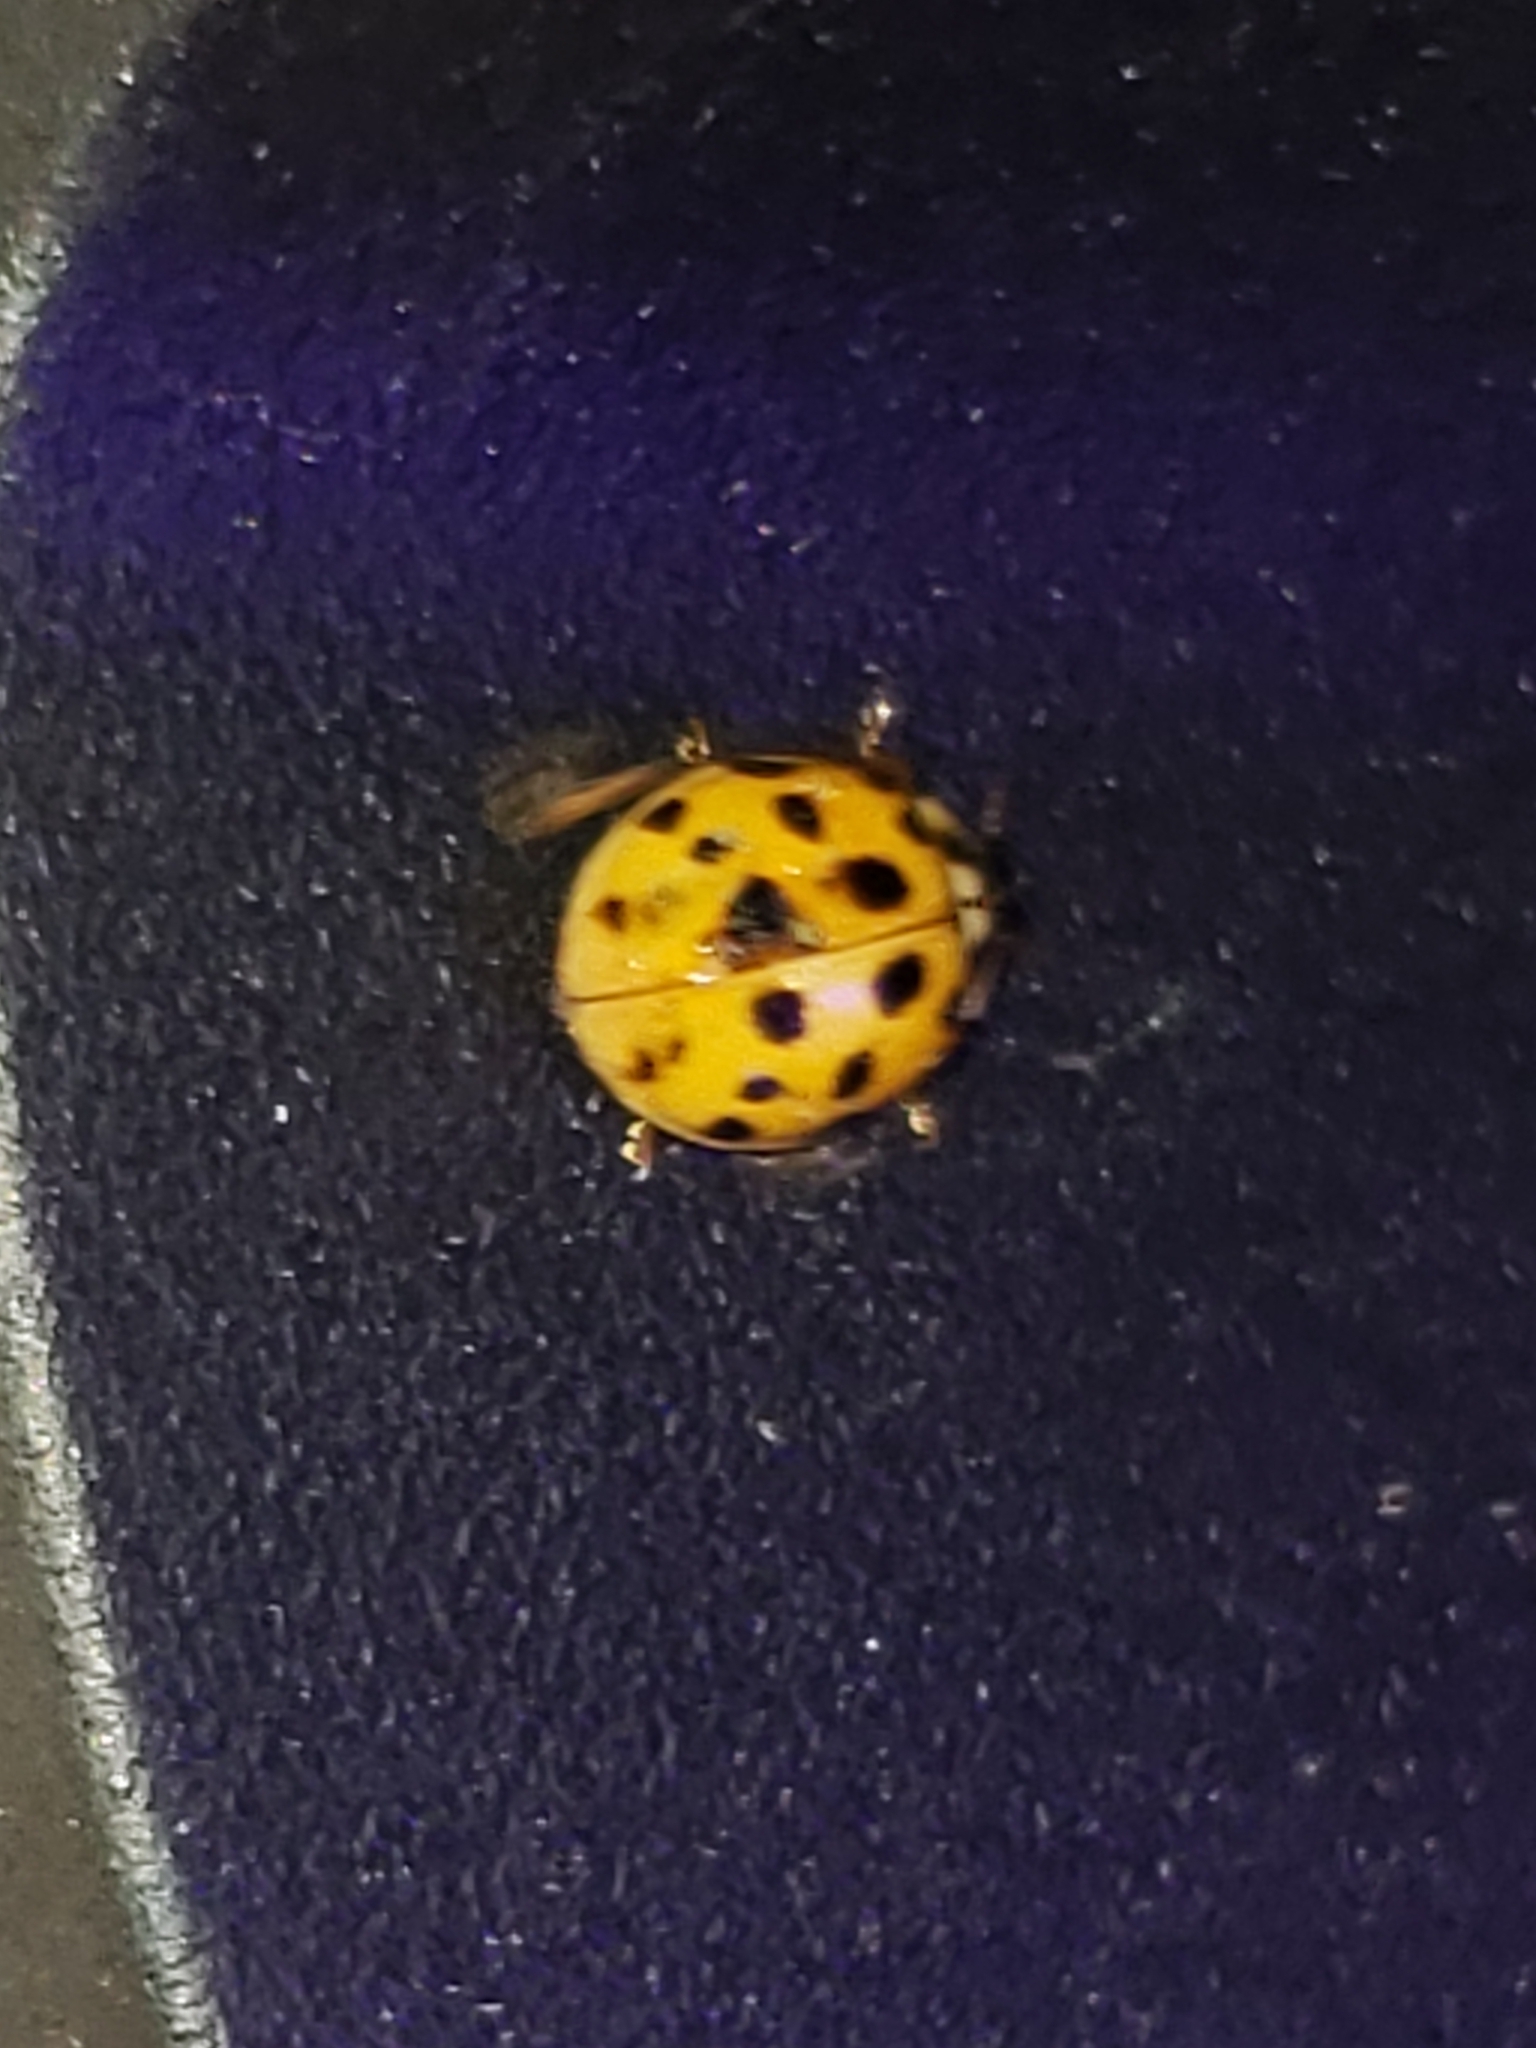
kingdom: Animalia
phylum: Arthropoda
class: Insecta
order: Coleoptera
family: Coccinellidae
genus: Harmonia
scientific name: Harmonia axyridis
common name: Harlequin ladybird
